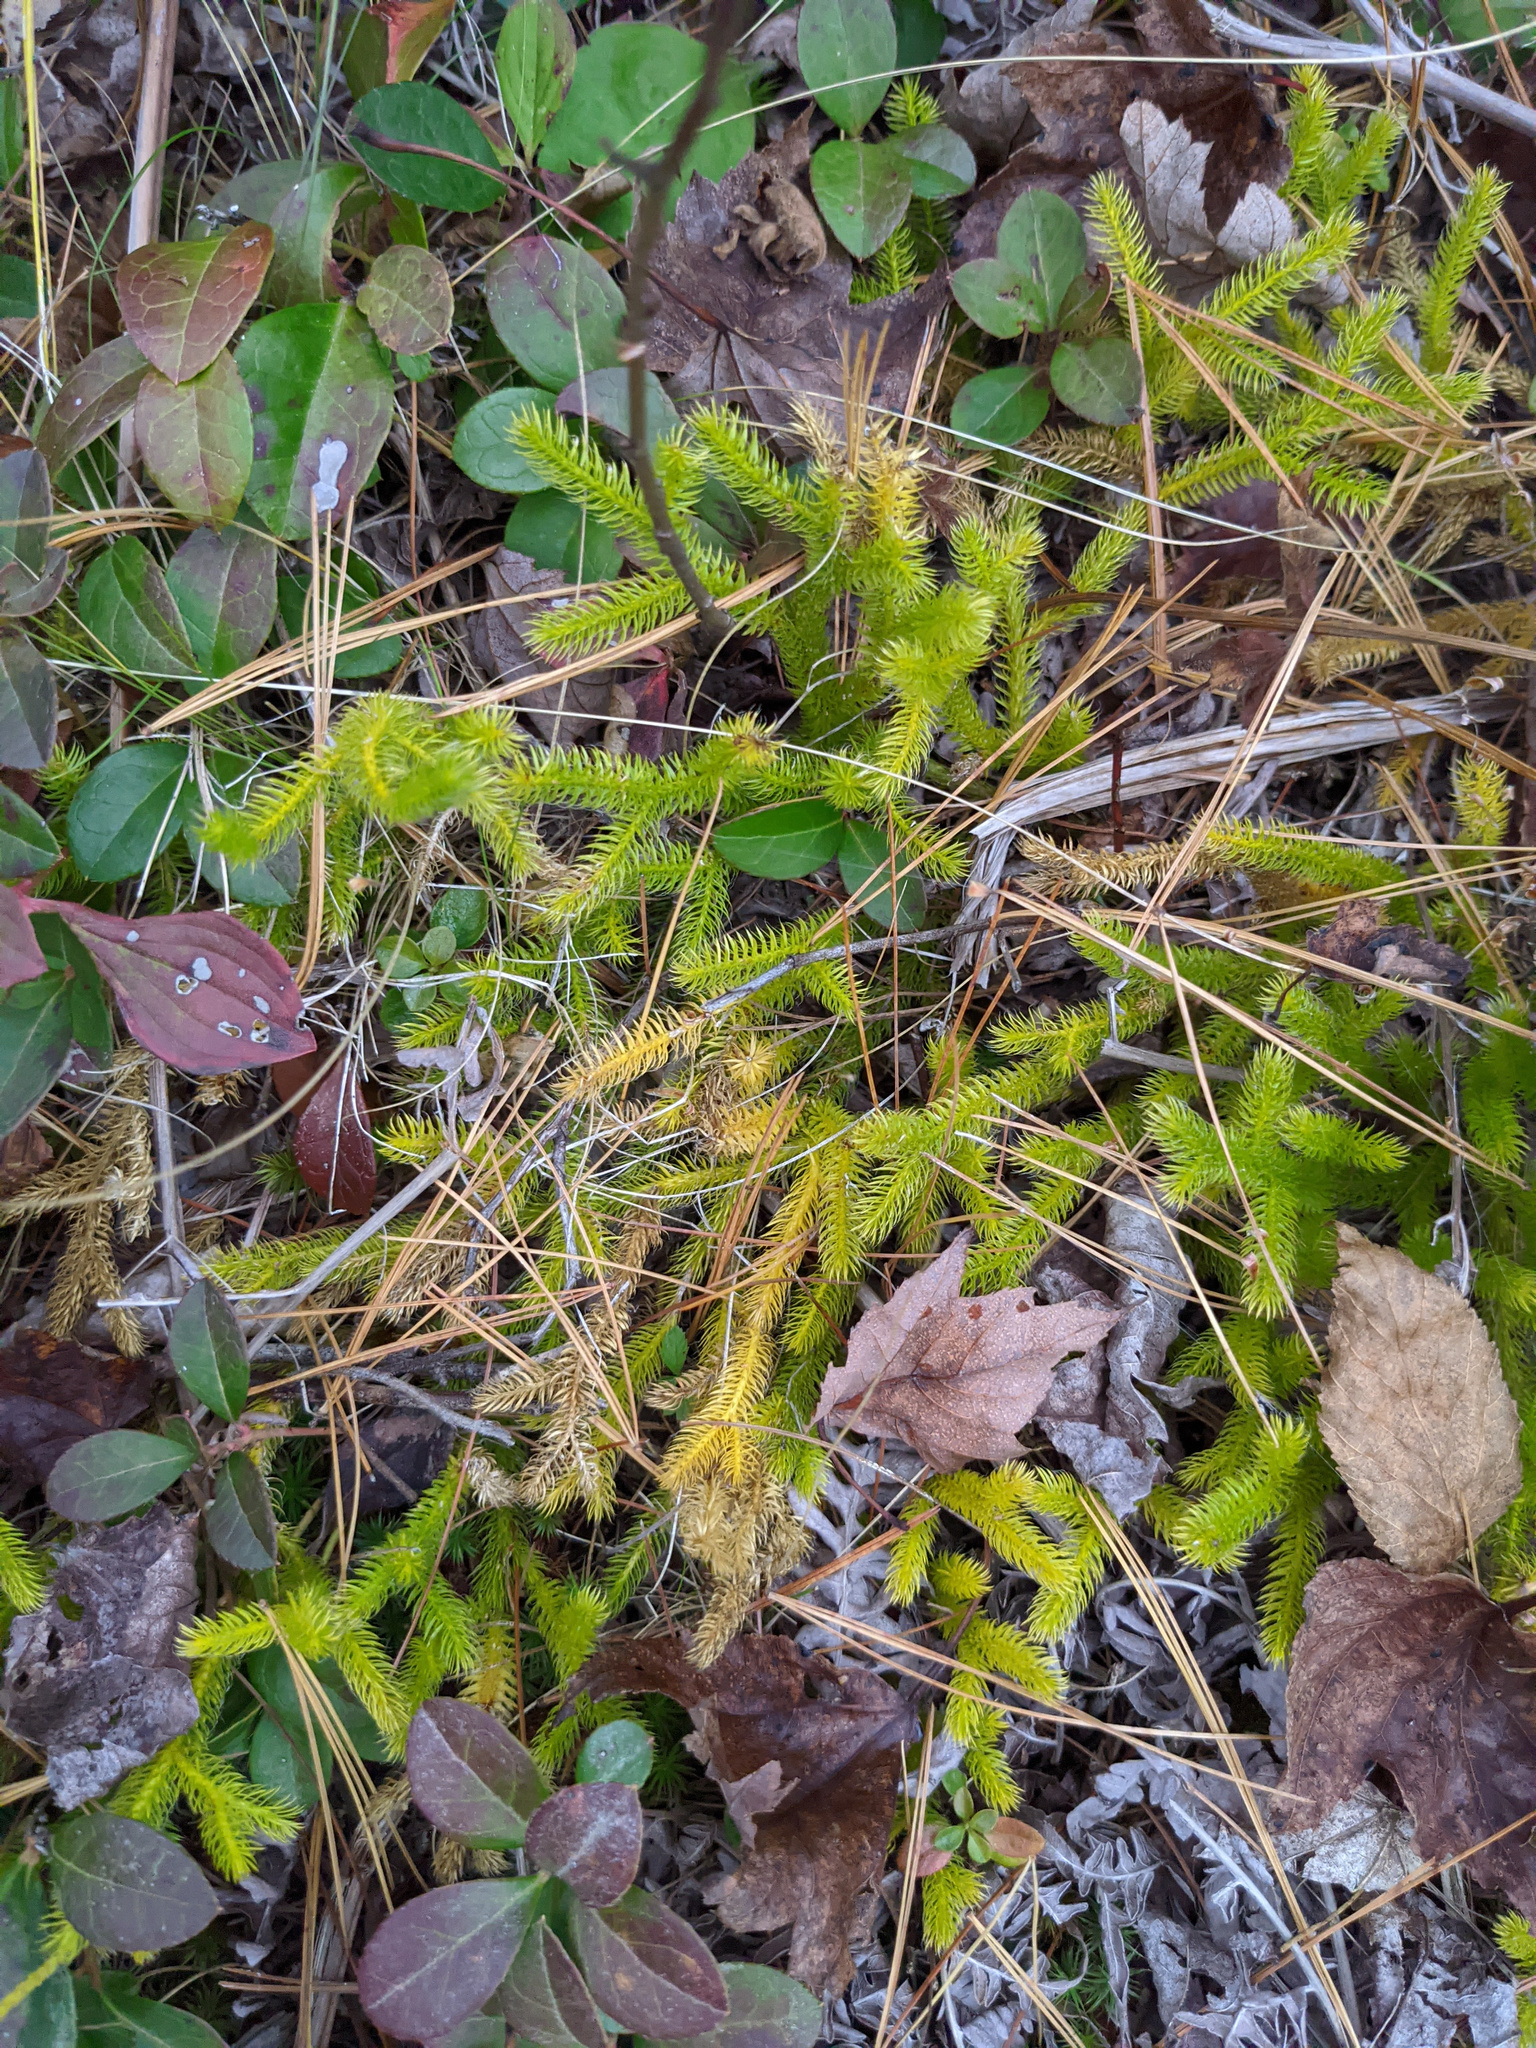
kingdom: Plantae
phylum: Tracheophyta
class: Lycopodiopsida
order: Lycopodiales
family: Lycopodiaceae
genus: Lycopodium
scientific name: Lycopodium clavatum
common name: Stag's-horn clubmoss
